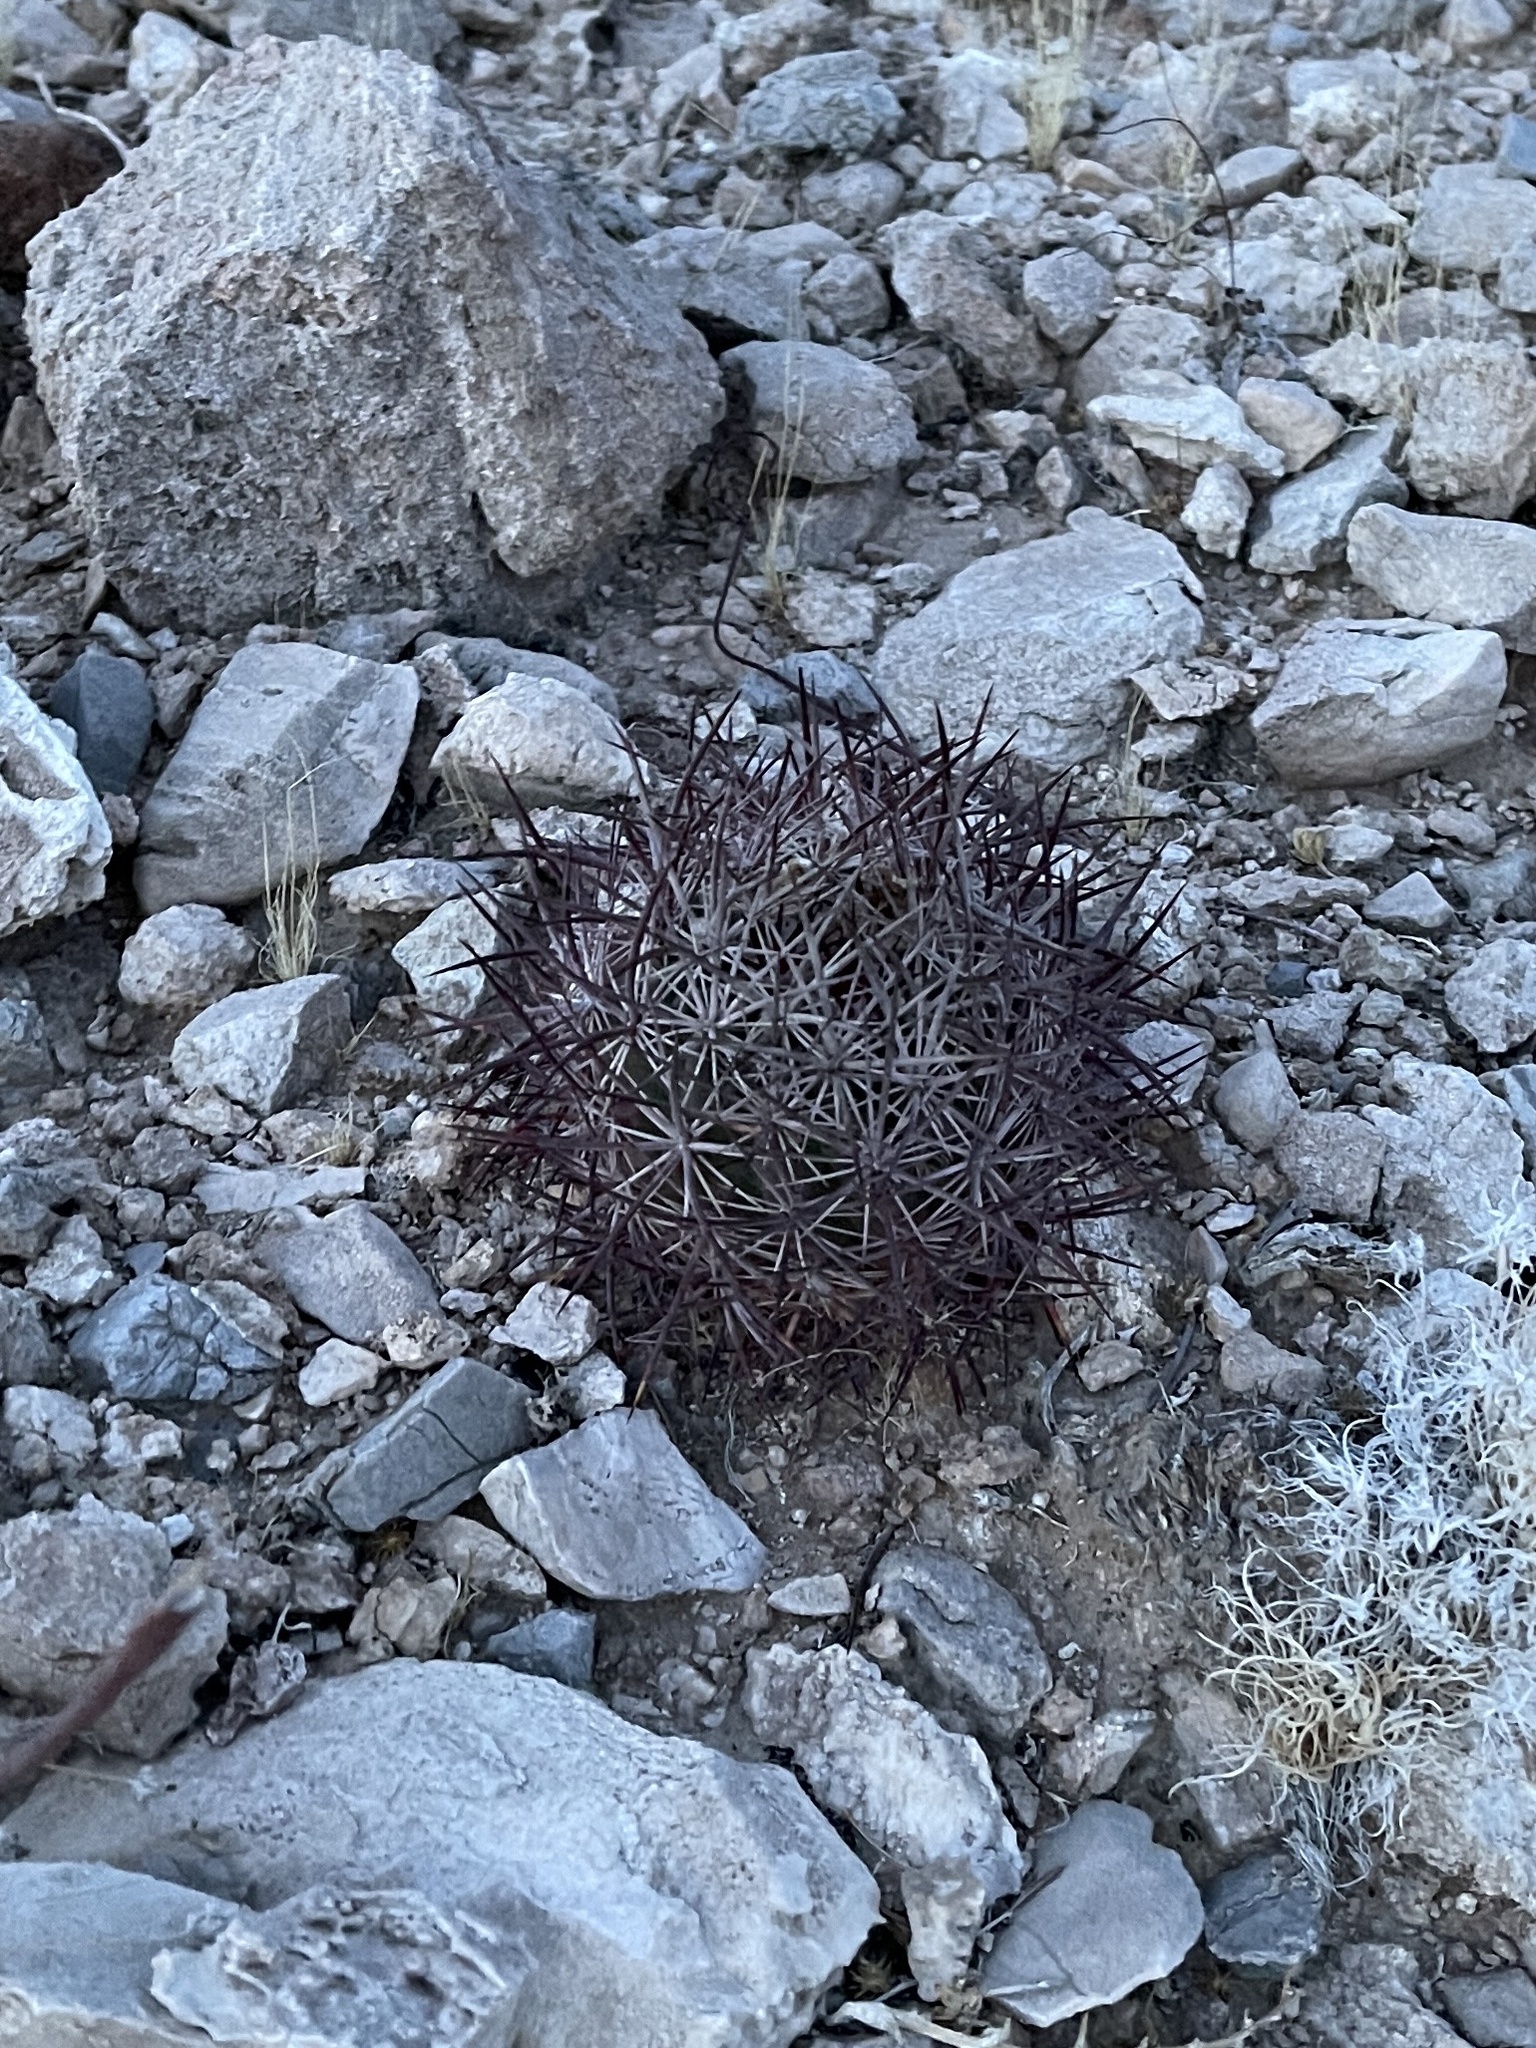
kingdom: Plantae
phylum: Tracheophyta
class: Magnoliopsida
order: Caryophyllales
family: Cactaceae
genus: Sclerocactus
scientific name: Sclerocactus johnsonii
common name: Eight-spine fishhook cactus
